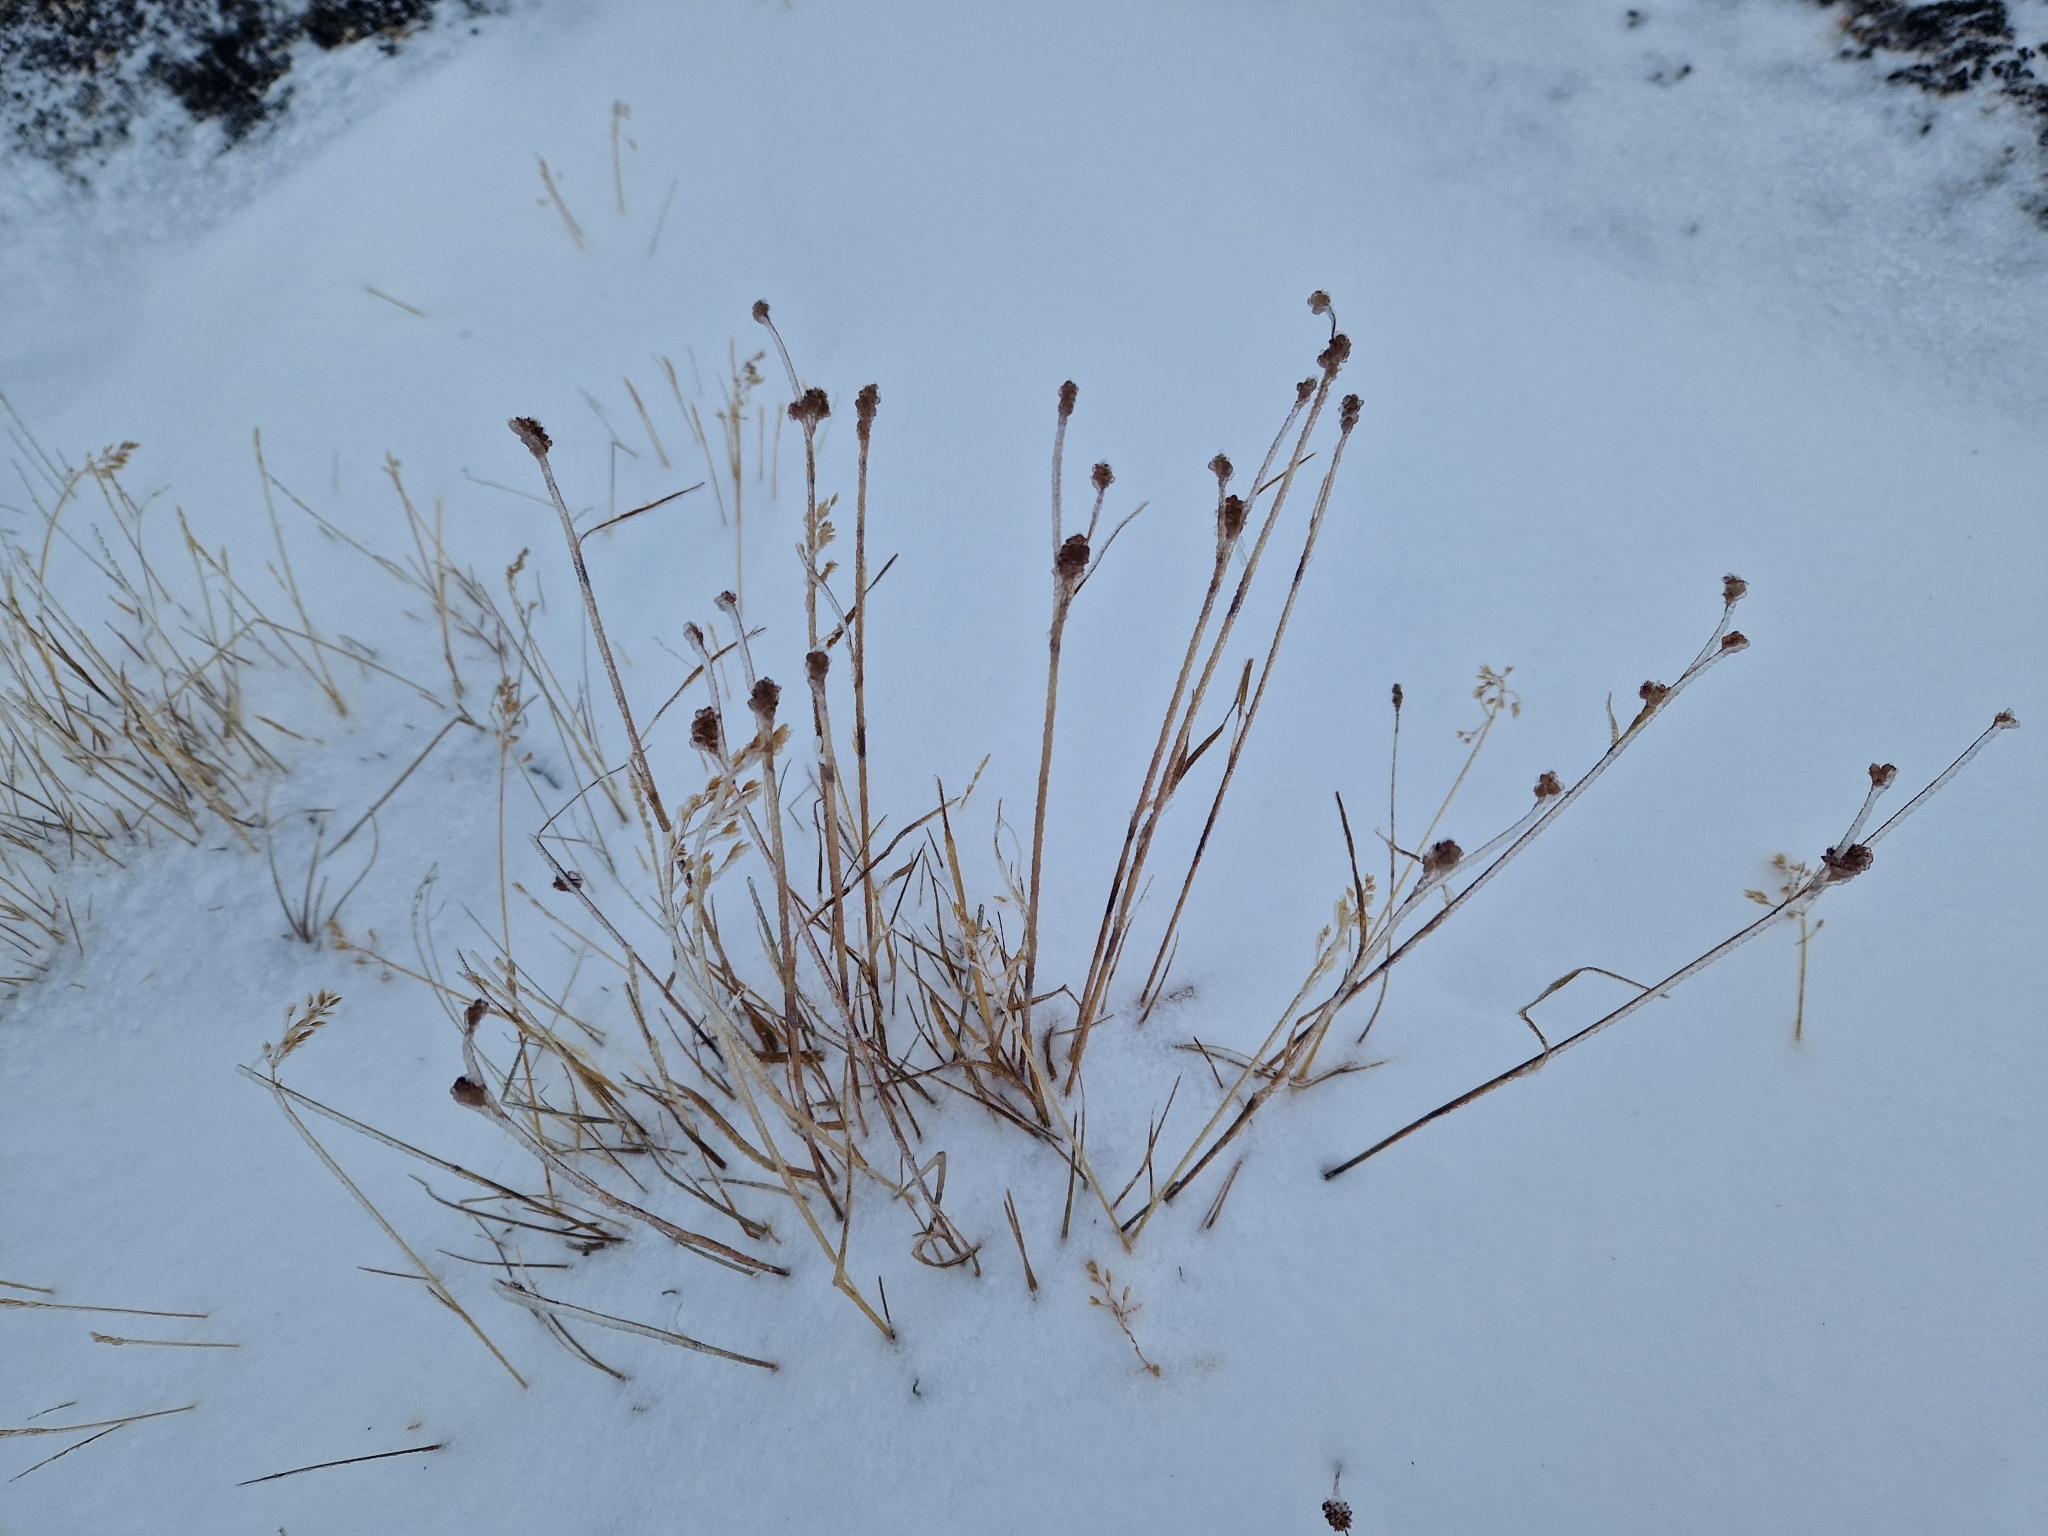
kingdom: Plantae
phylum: Tracheophyta
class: Liliopsida
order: Poales
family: Juncaceae
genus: Luzula
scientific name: Luzula confusa
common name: Northern wood rush
